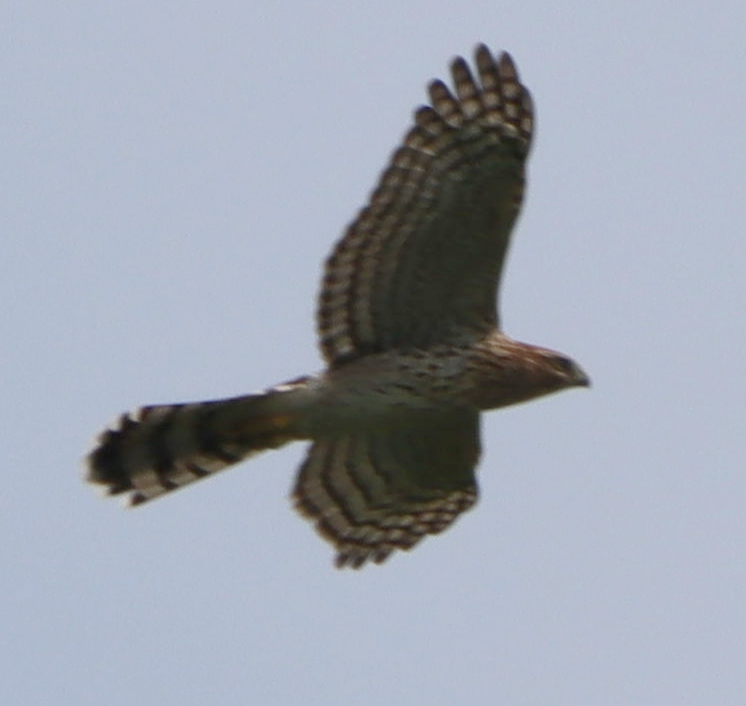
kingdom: Animalia
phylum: Chordata
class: Aves
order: Accipitriformes
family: Accipitridae
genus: Accipiter
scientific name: Accipiter cooperii
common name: Cooper's hawk
